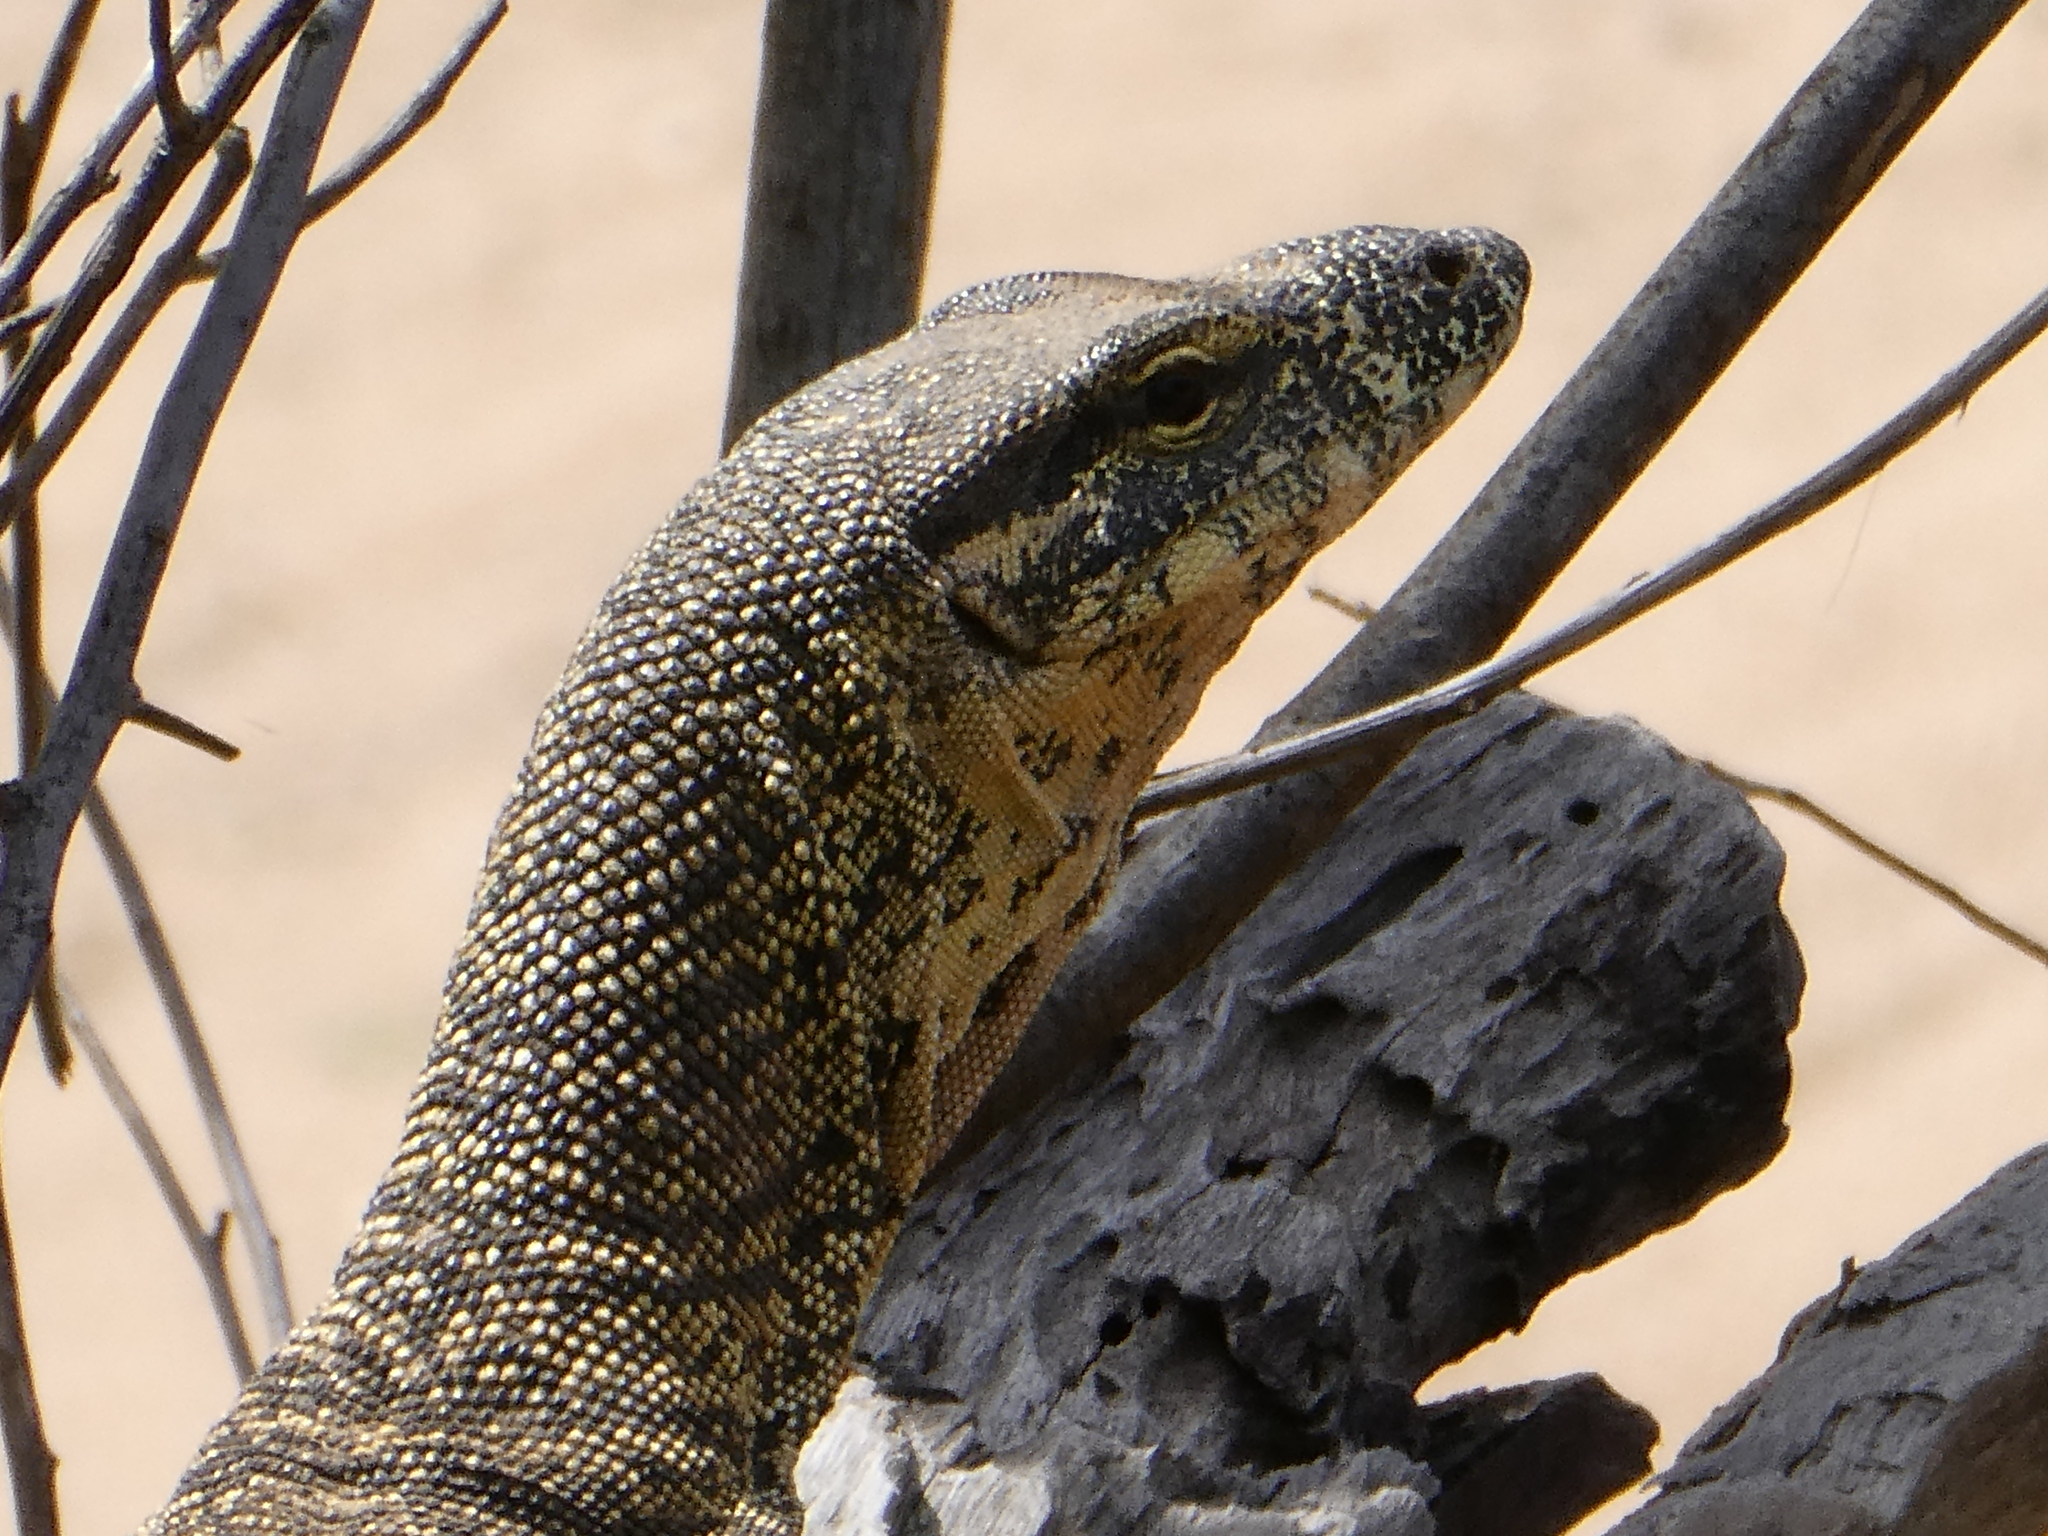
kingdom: Animalia
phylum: Chordata
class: Squamata
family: Varanidae
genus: Varanus
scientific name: Varanus varius
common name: Lace monitor
